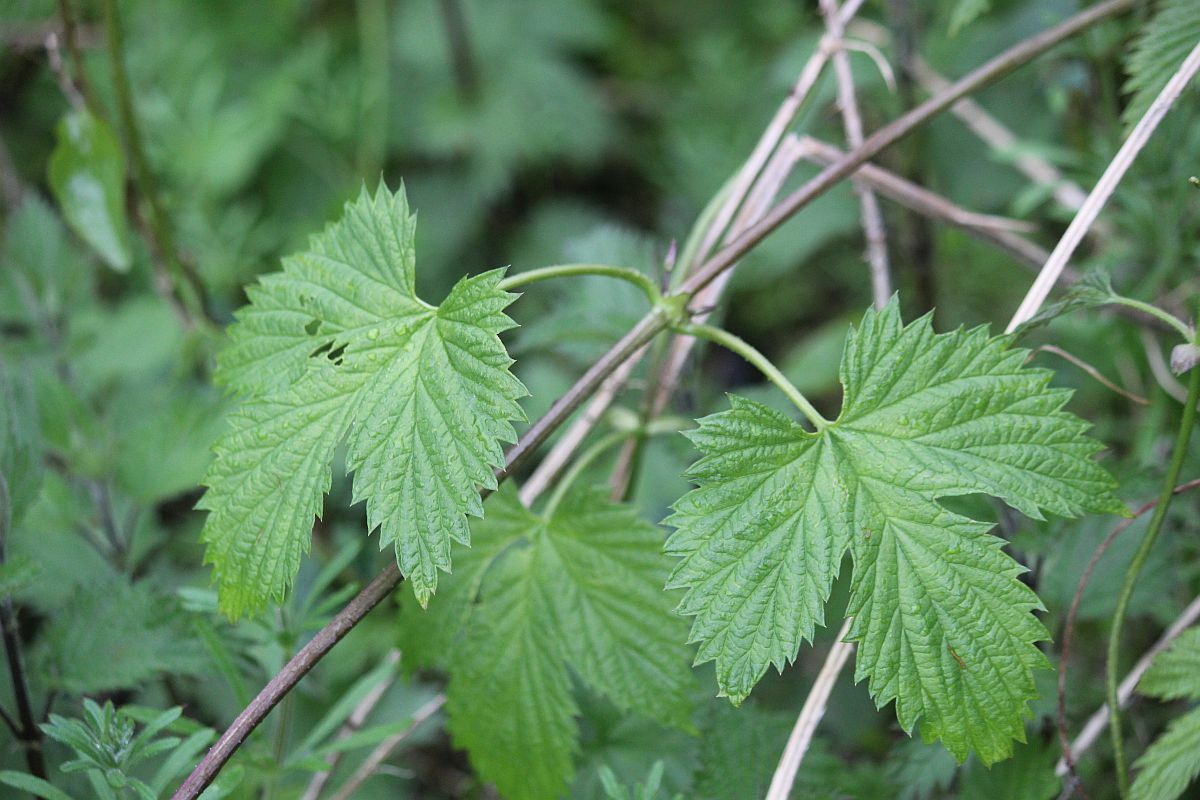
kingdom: Plantae
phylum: Tracheophyta
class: Magnoliopsida
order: Rosales
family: Cannabaceae
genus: Humulus
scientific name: Humulus lupulus
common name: Hop
